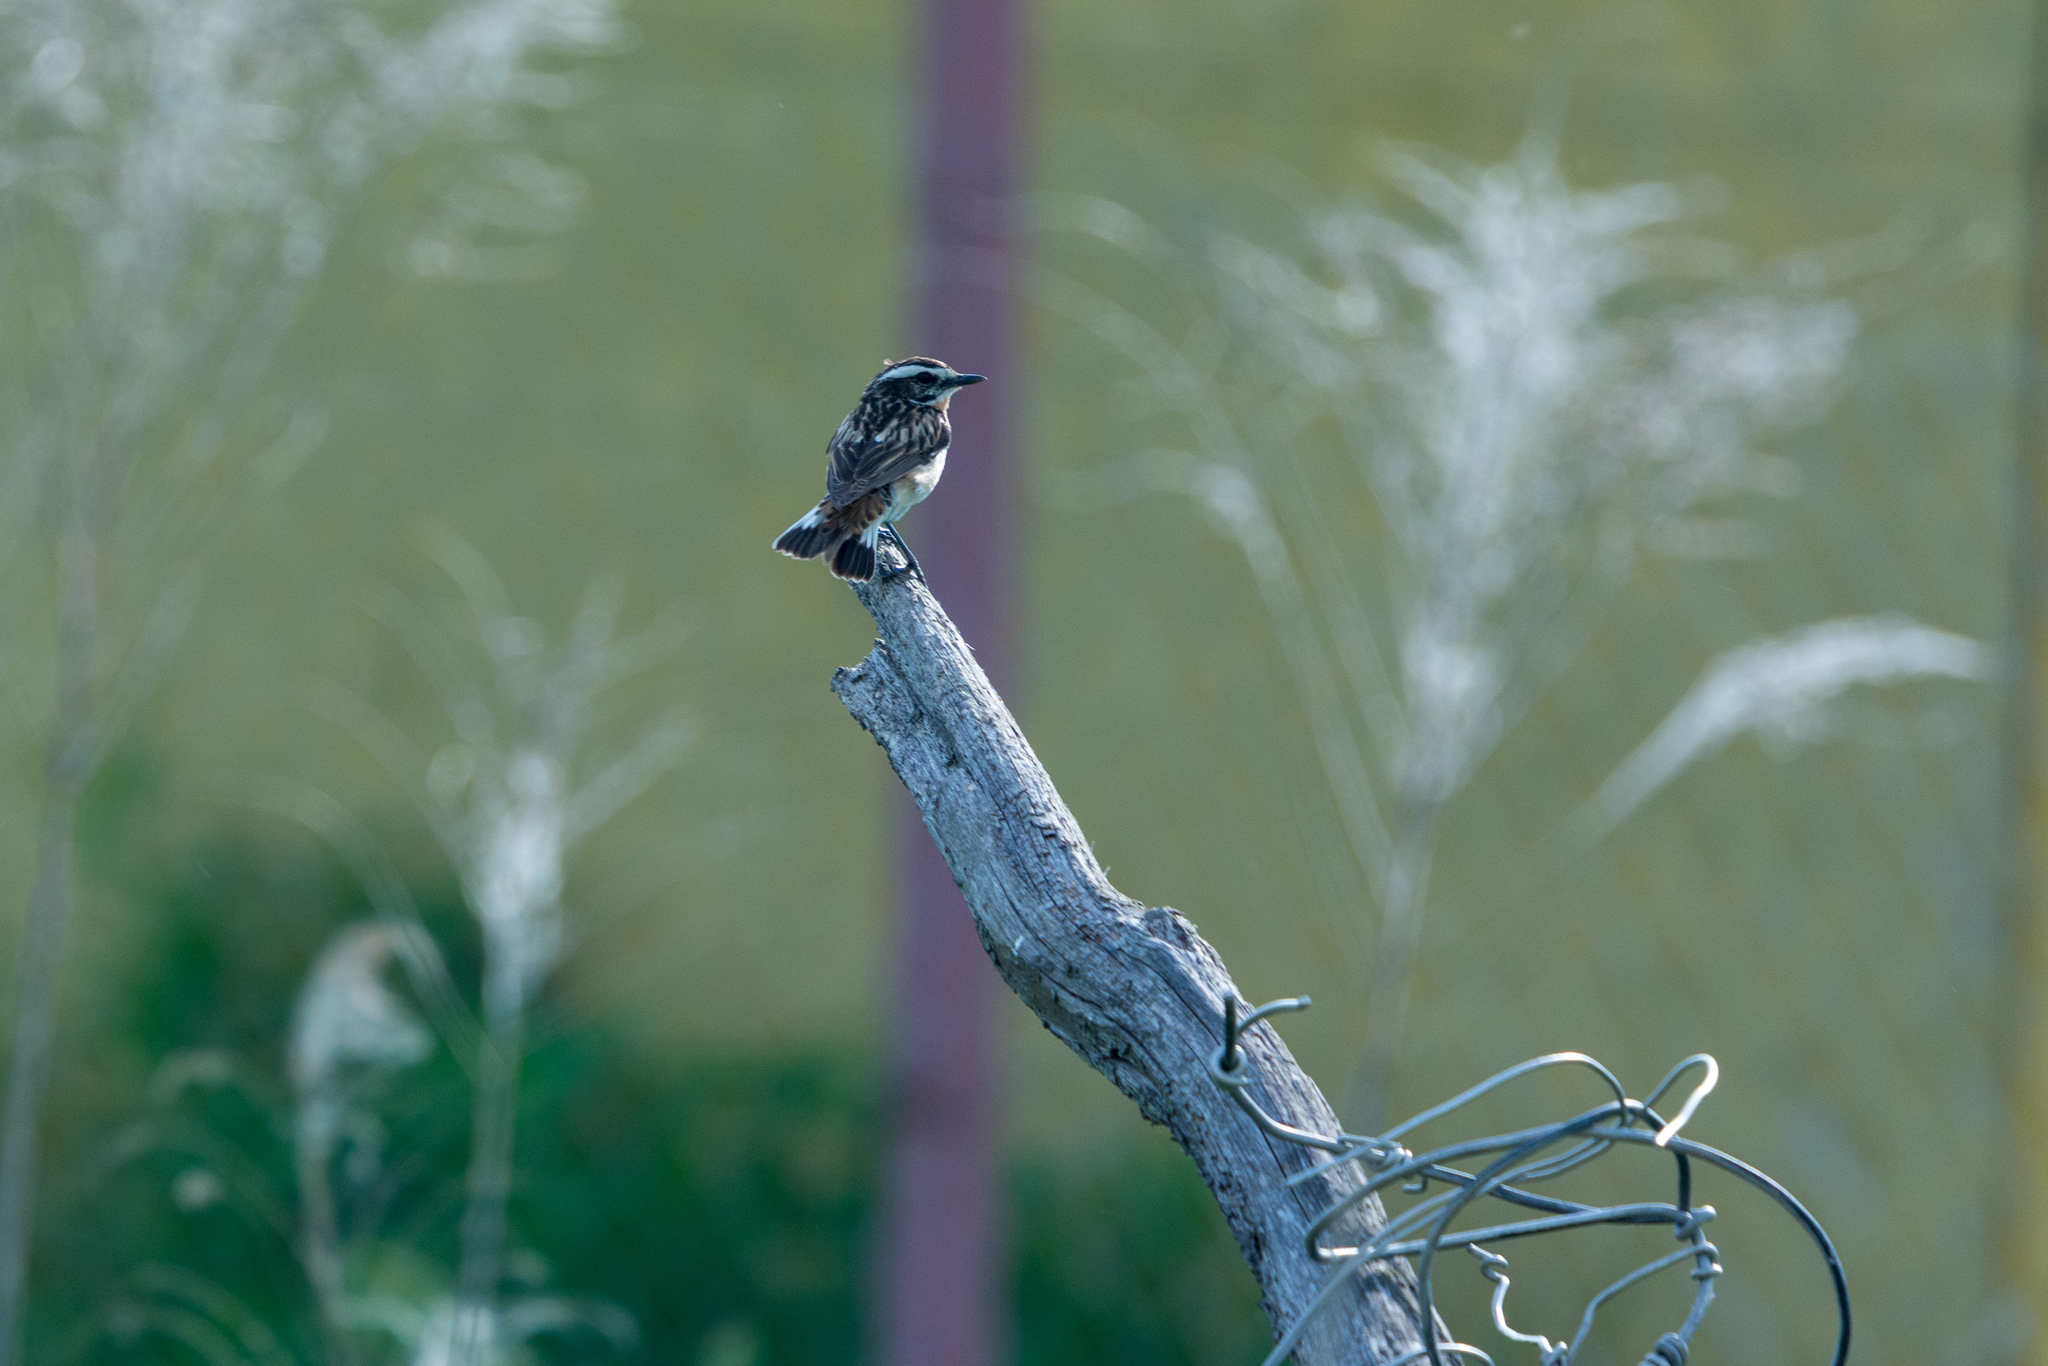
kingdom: Animalia
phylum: Chordata
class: Aves
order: Passeriformes
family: Muscicapidae
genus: Saxicola
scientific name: Saxicola rubetra
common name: Whinchat
